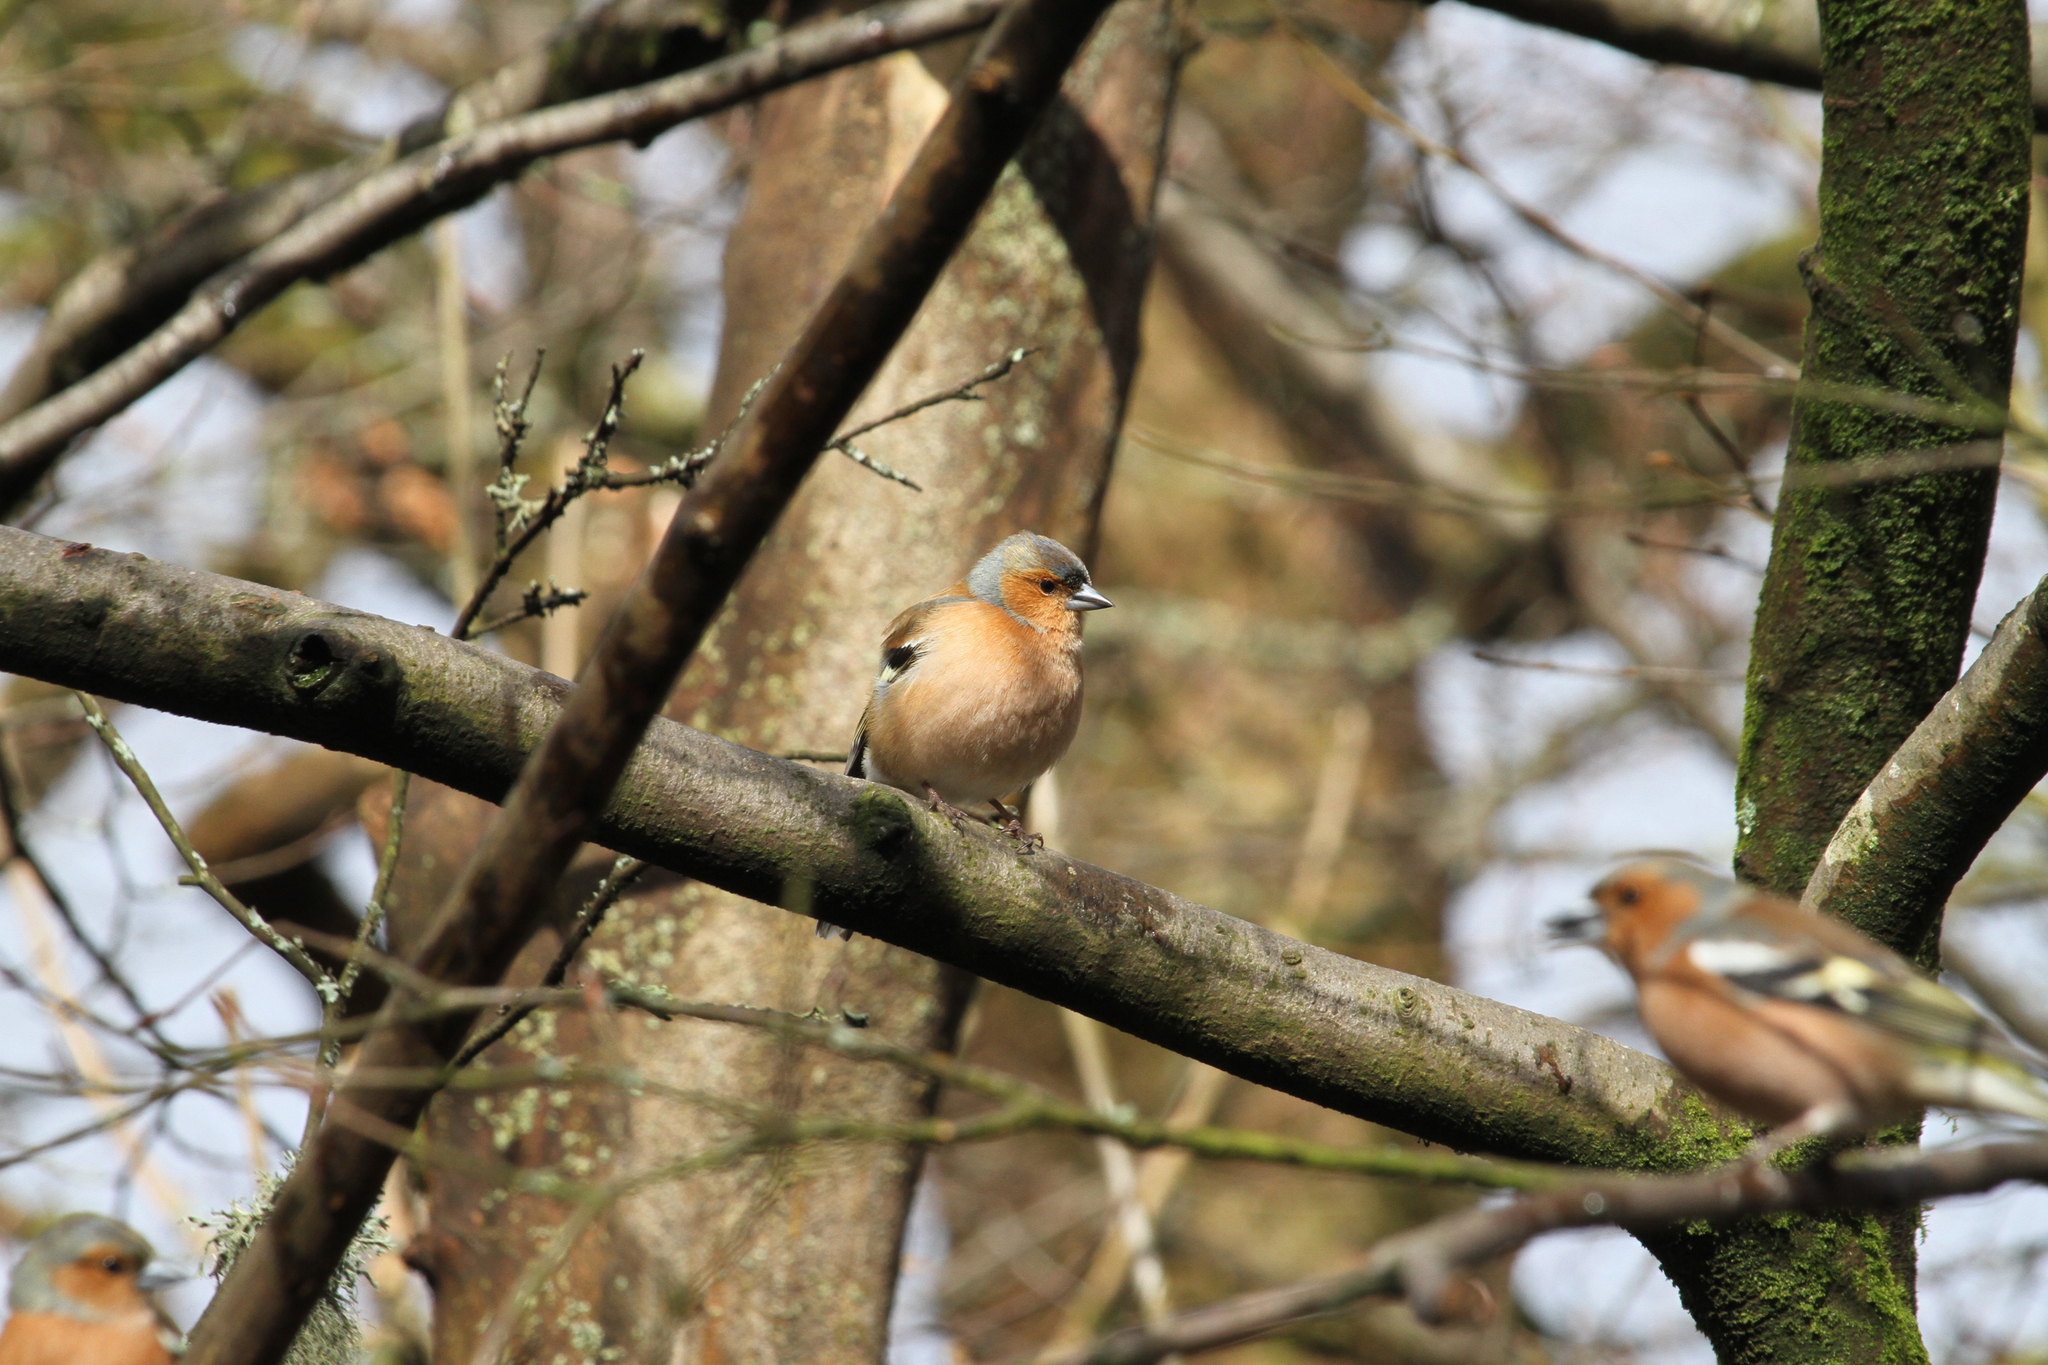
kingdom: Animalia
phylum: Chordata
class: Aves
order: Passeriformes
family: Fringillidae
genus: Fringilla
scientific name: Fringilla coelebs
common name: Common chaffinch
